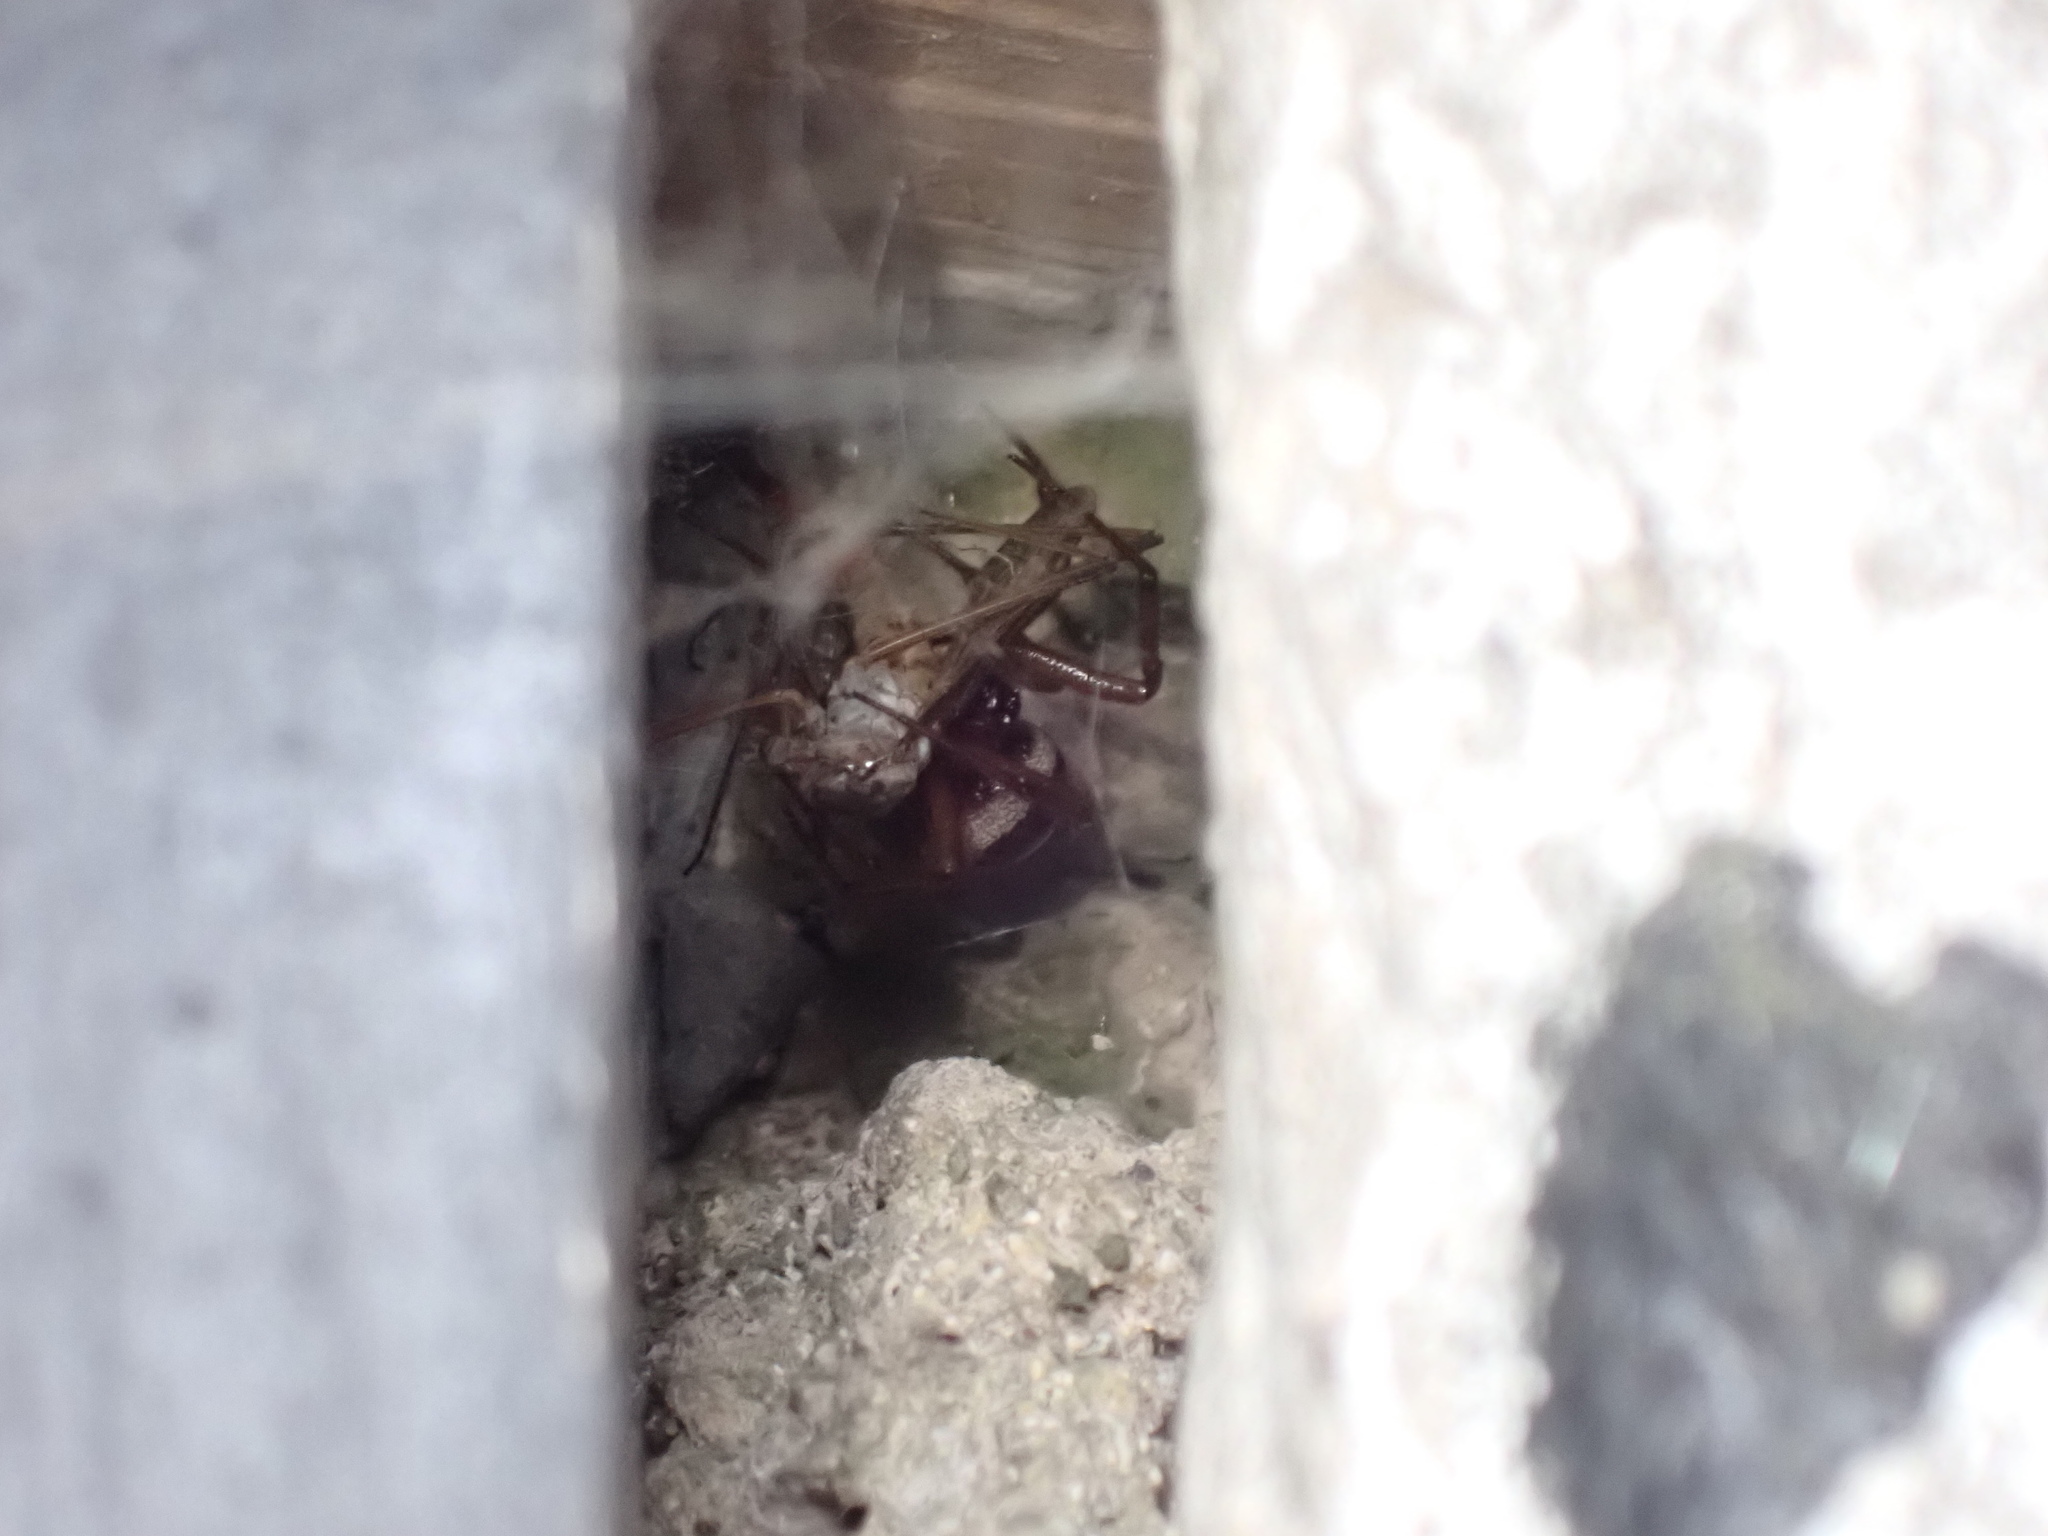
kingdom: Animalia
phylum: Arthropoda
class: Arachnida
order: Araneae
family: Theridiidae
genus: Steatoda
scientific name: Steatoda nobilis
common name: Cobweb weaver
